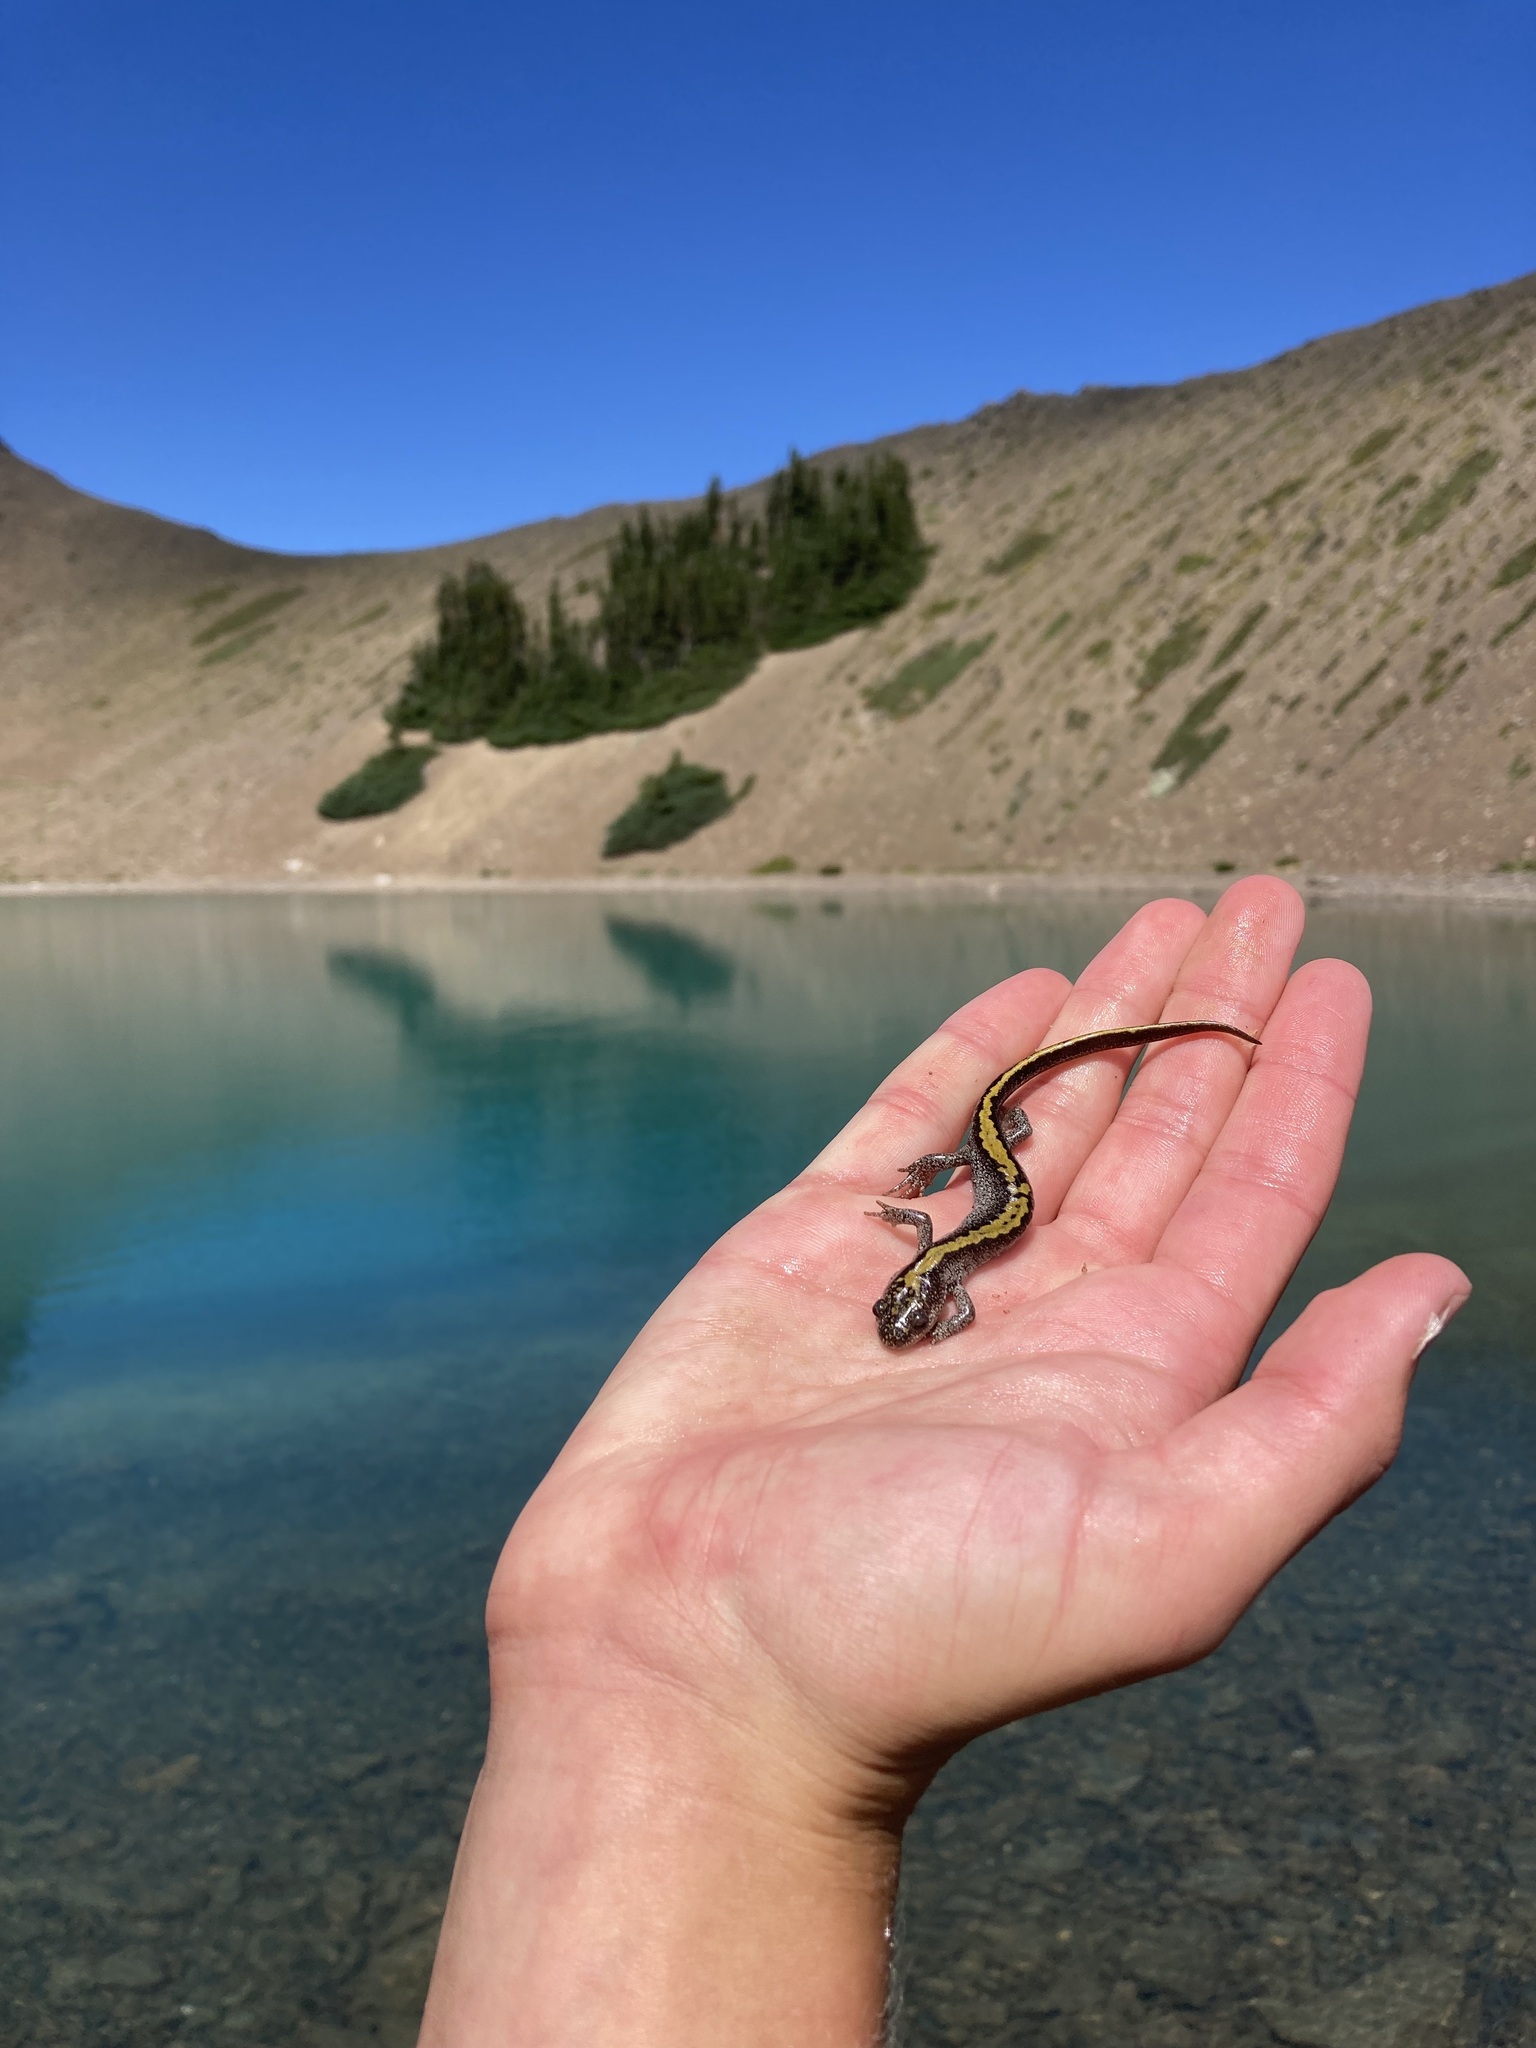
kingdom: Animalia
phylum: Chordata
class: Amphibia
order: Caudata
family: Ambystomatidae
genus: Ambystoma
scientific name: Ambystoma macrodactylum
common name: Long-toed salamander
